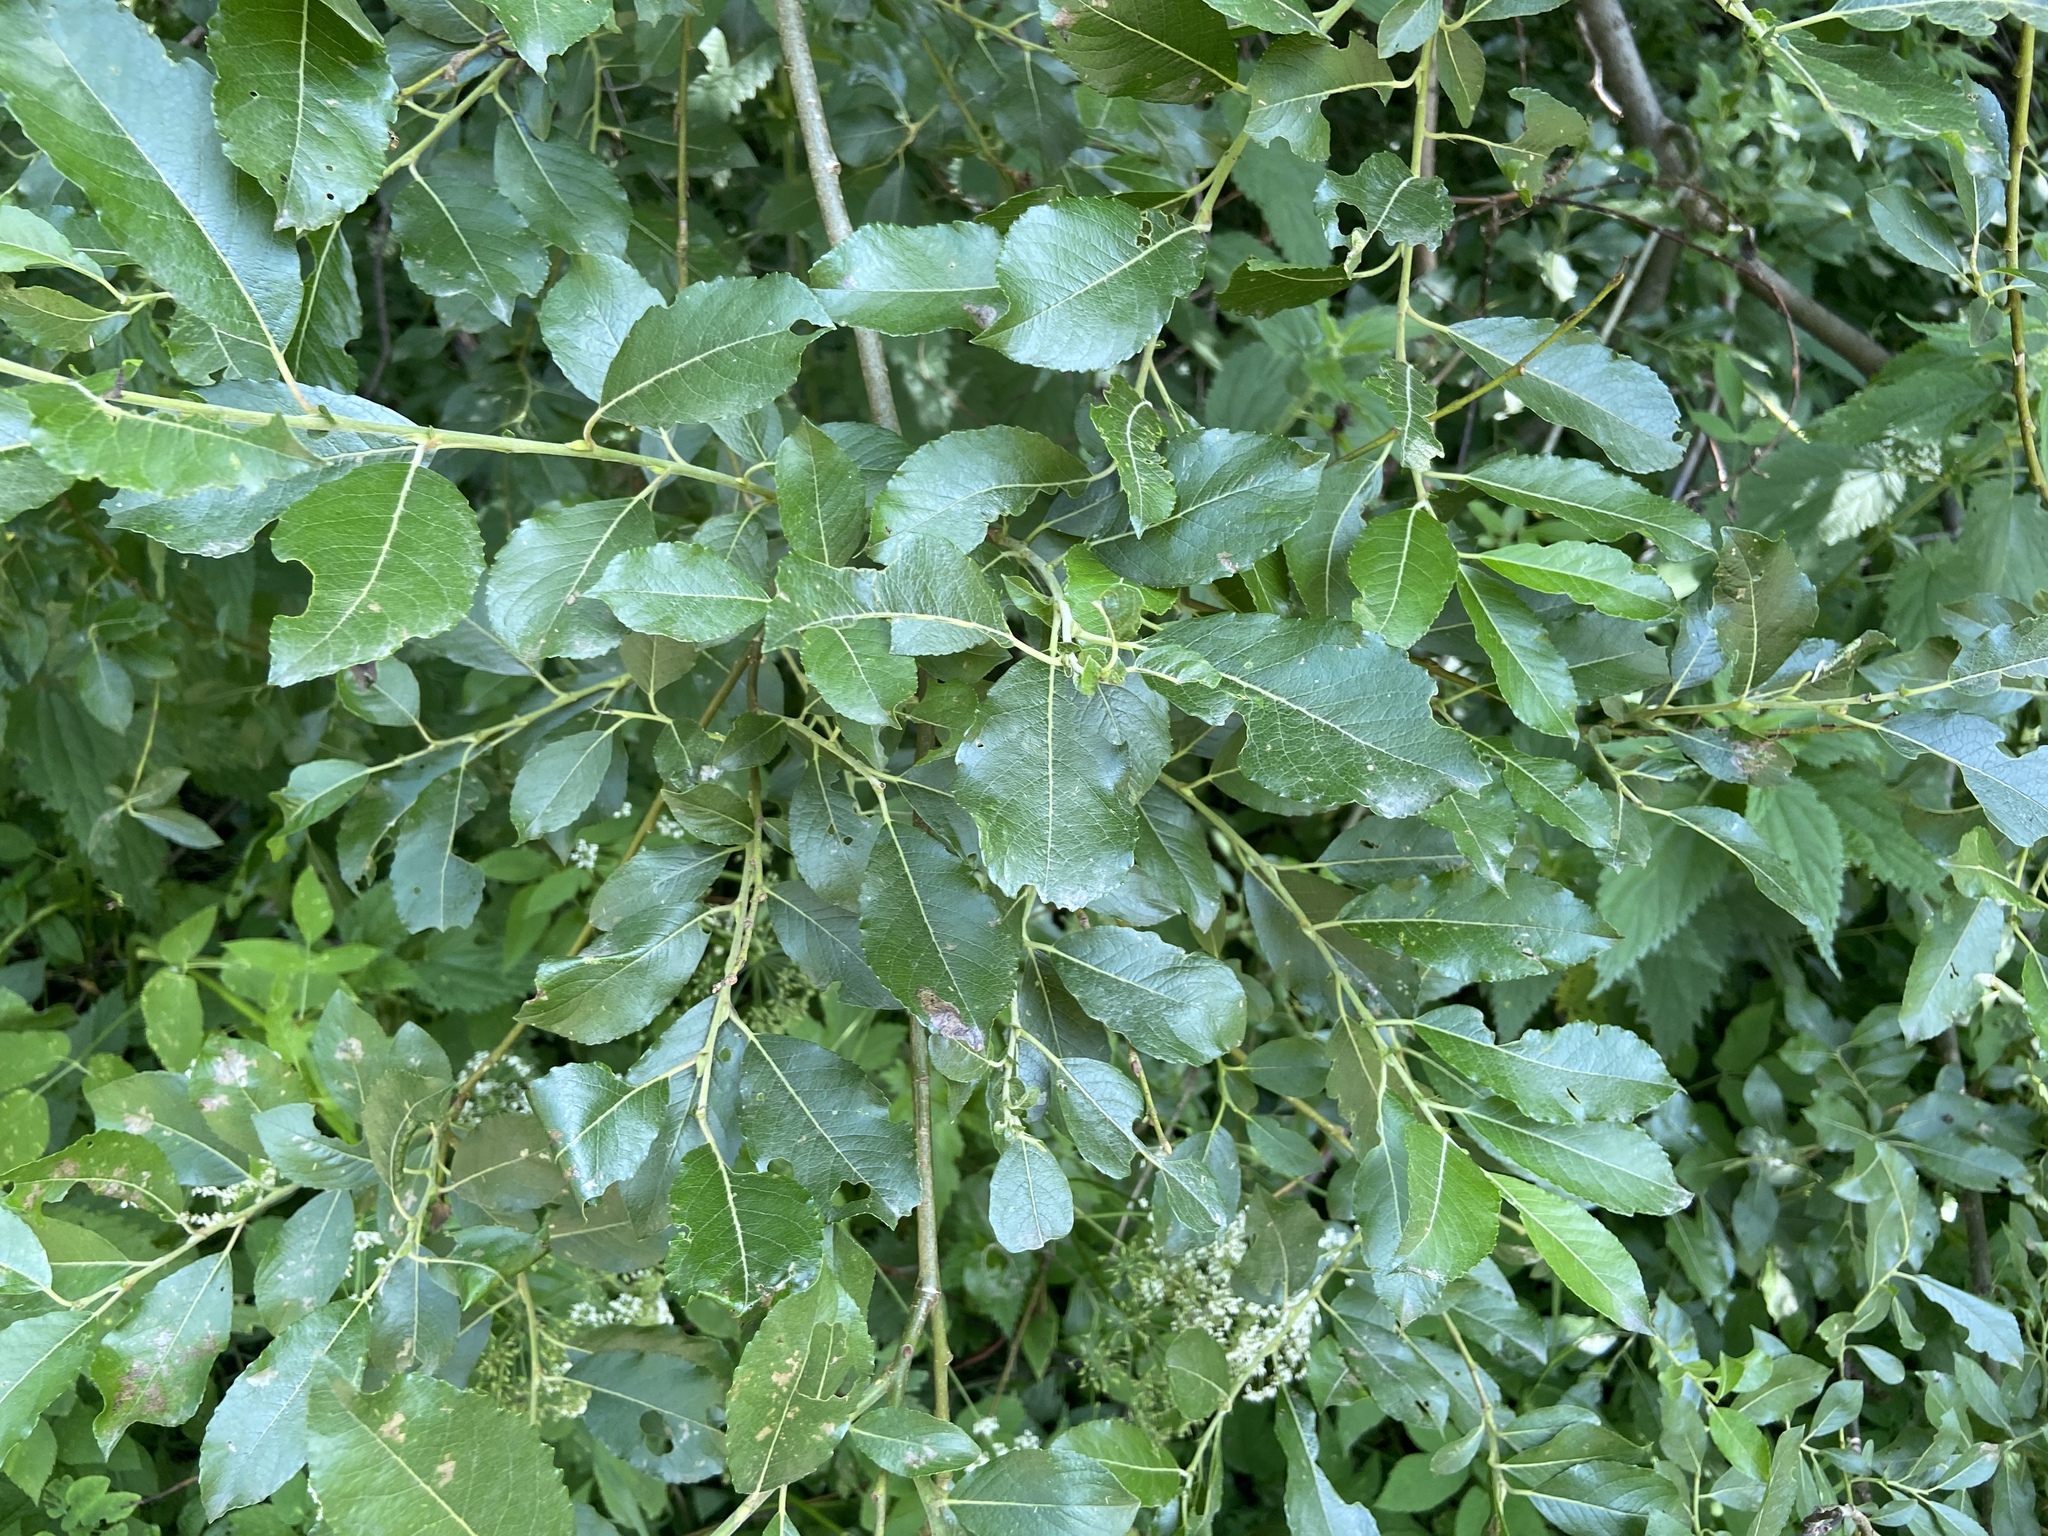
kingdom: Plantae
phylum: Tracheophyta
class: Magnoliopsida
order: Malpighiales
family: Salicaceae
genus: Salix
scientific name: Salix myrsinifolia
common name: Dark-leaved willow
